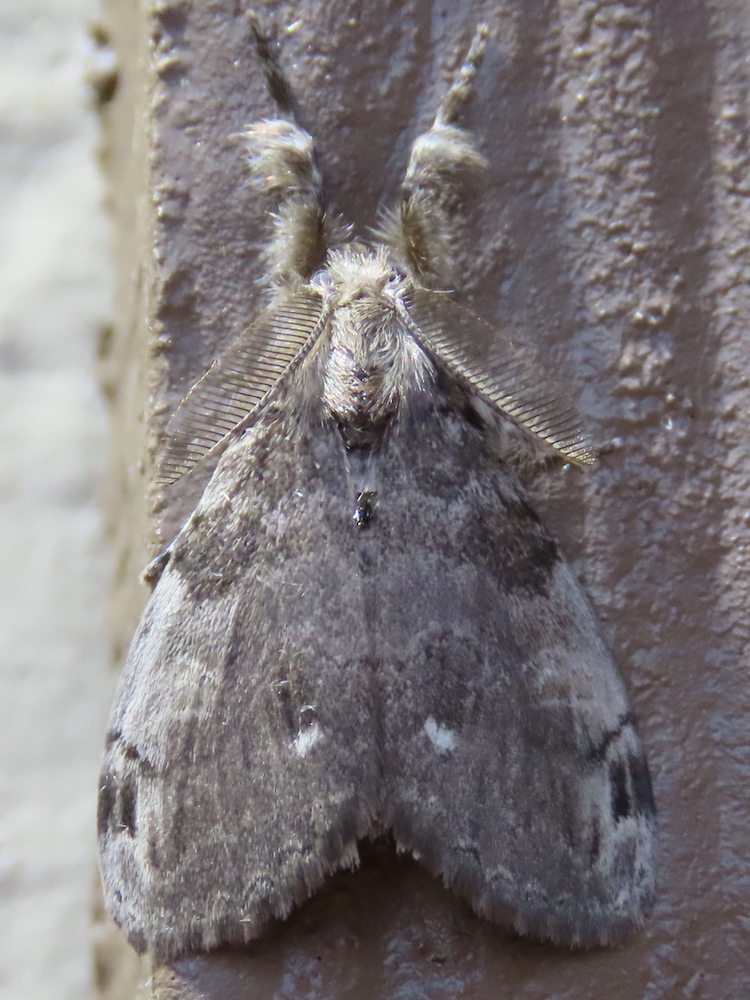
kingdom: Animalia
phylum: Arthropoda
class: Insecta
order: Lepidoptera
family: Erebidae
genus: Orgyia
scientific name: Orgyia leucostigma
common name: White-marked tussock moth
